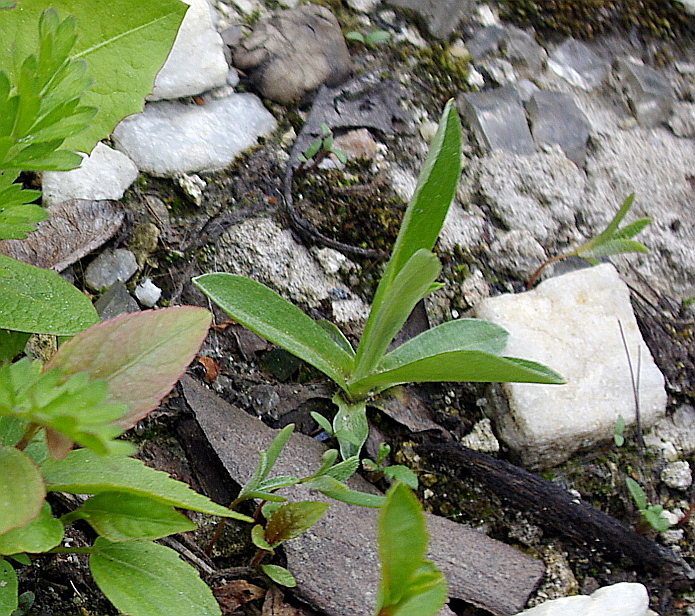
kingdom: Plantae
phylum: Tracheophyta
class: Magnoliopsida
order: Asterales
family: Asteraceae
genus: Cirsium
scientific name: Cirsium arvense
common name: Creeping thistle
